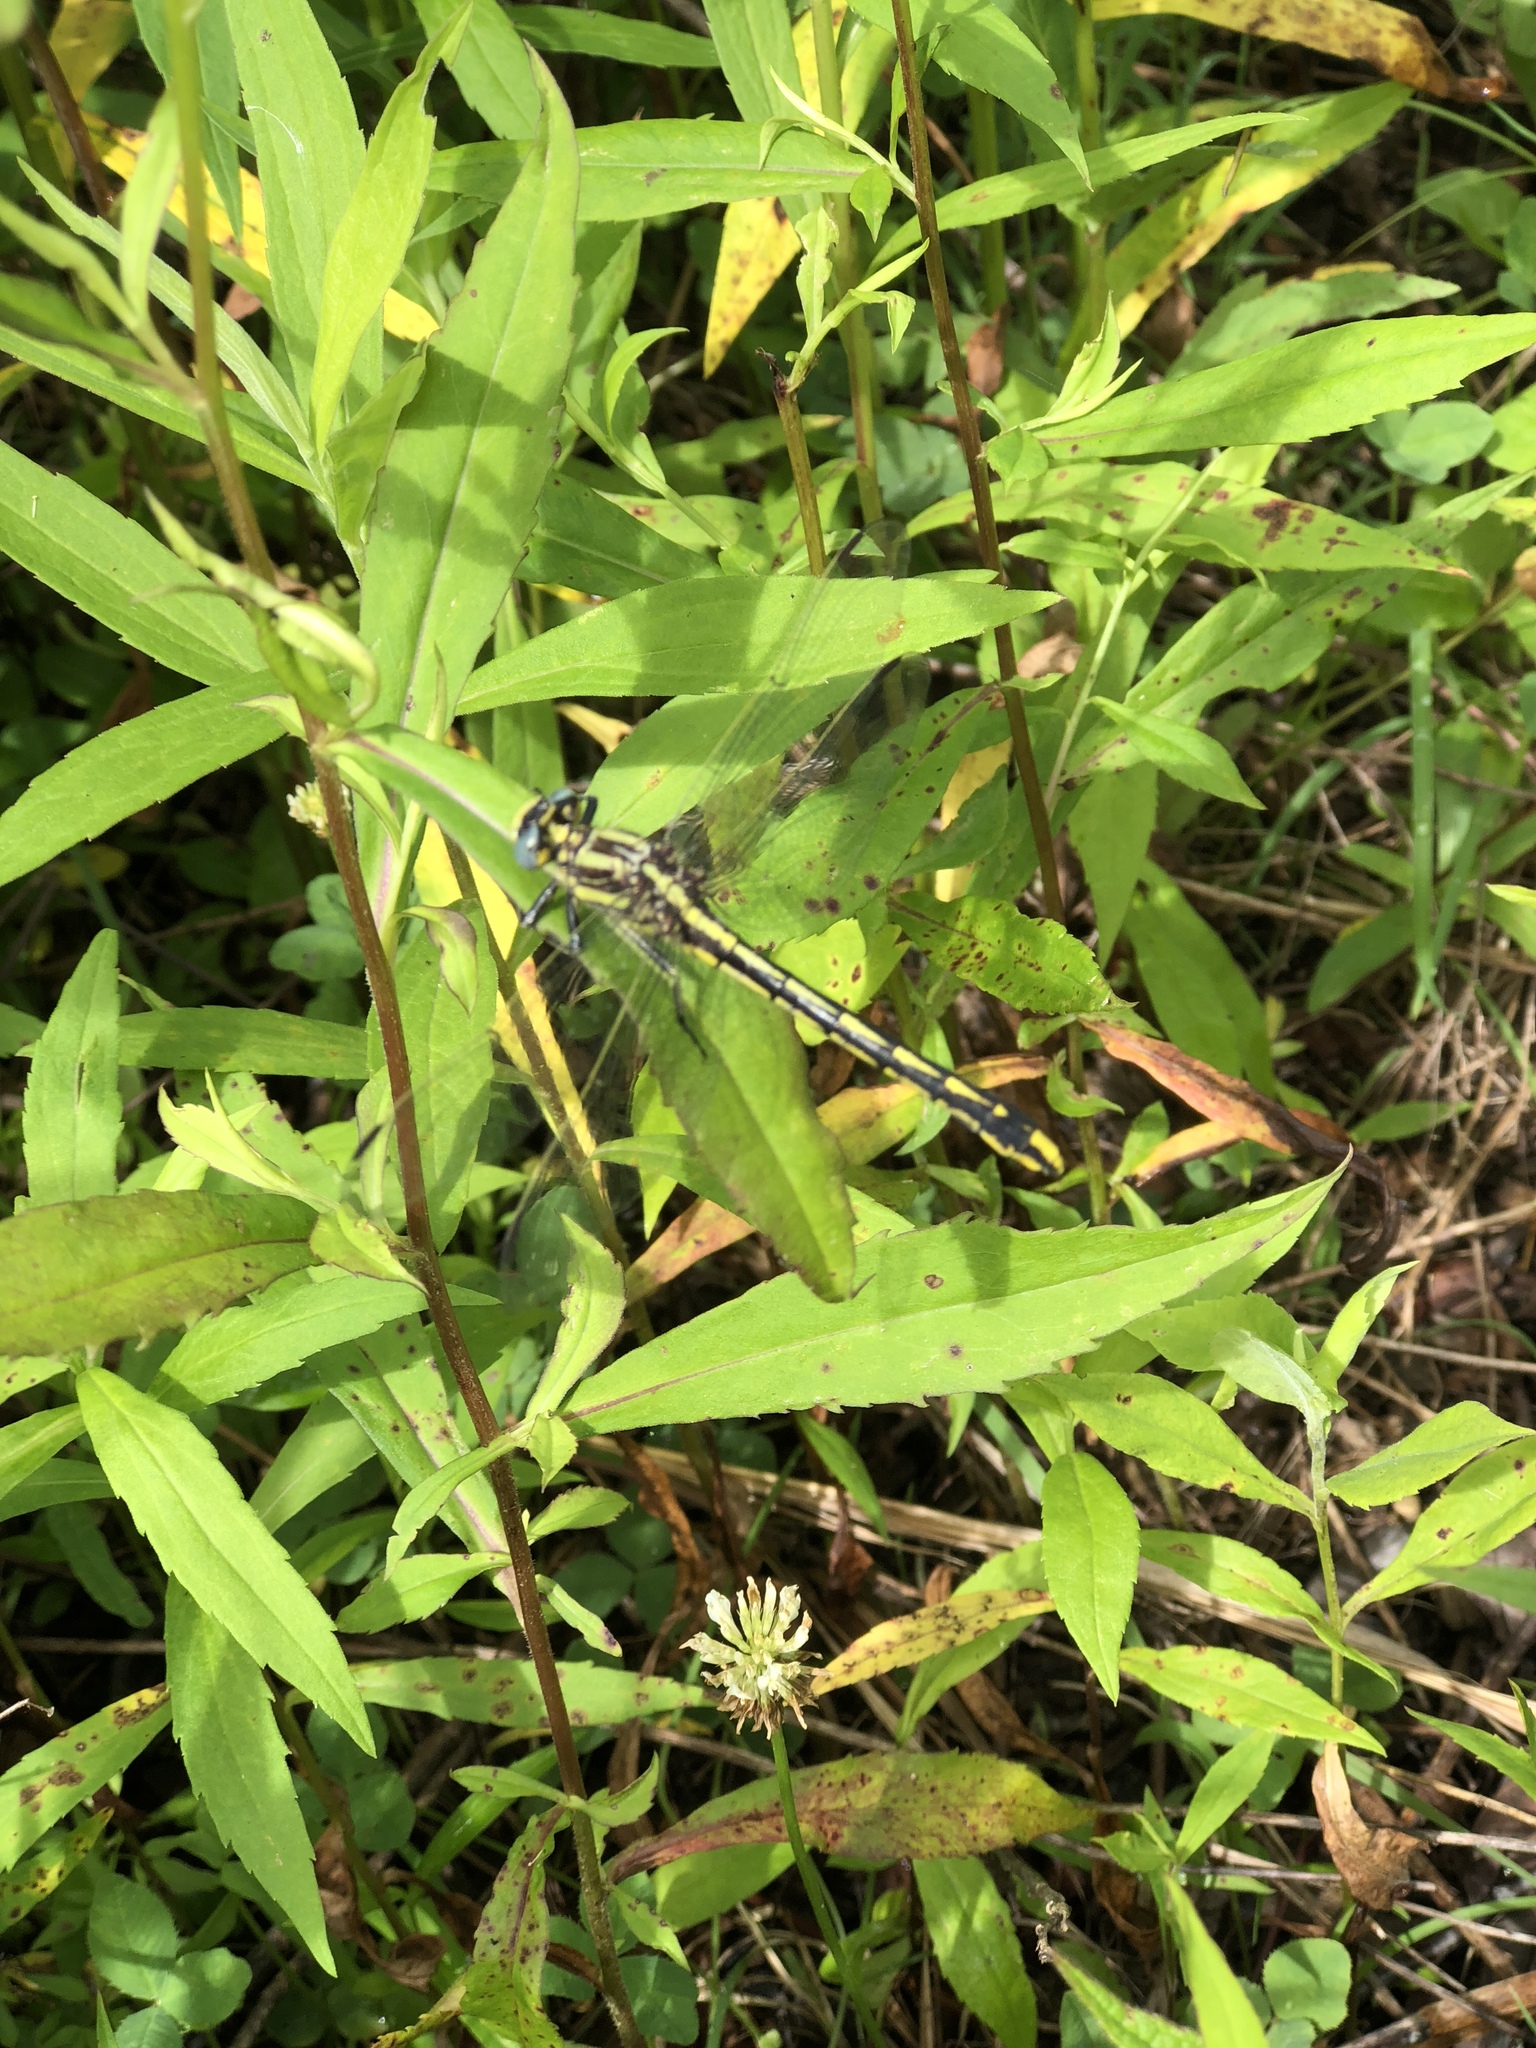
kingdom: Animalia
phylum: Arthropoda
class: Insecta
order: Odonata
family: Gomphidae
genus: Phanogomphus
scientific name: Phanogomphus graslinellus
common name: Pronghorn clubtail
